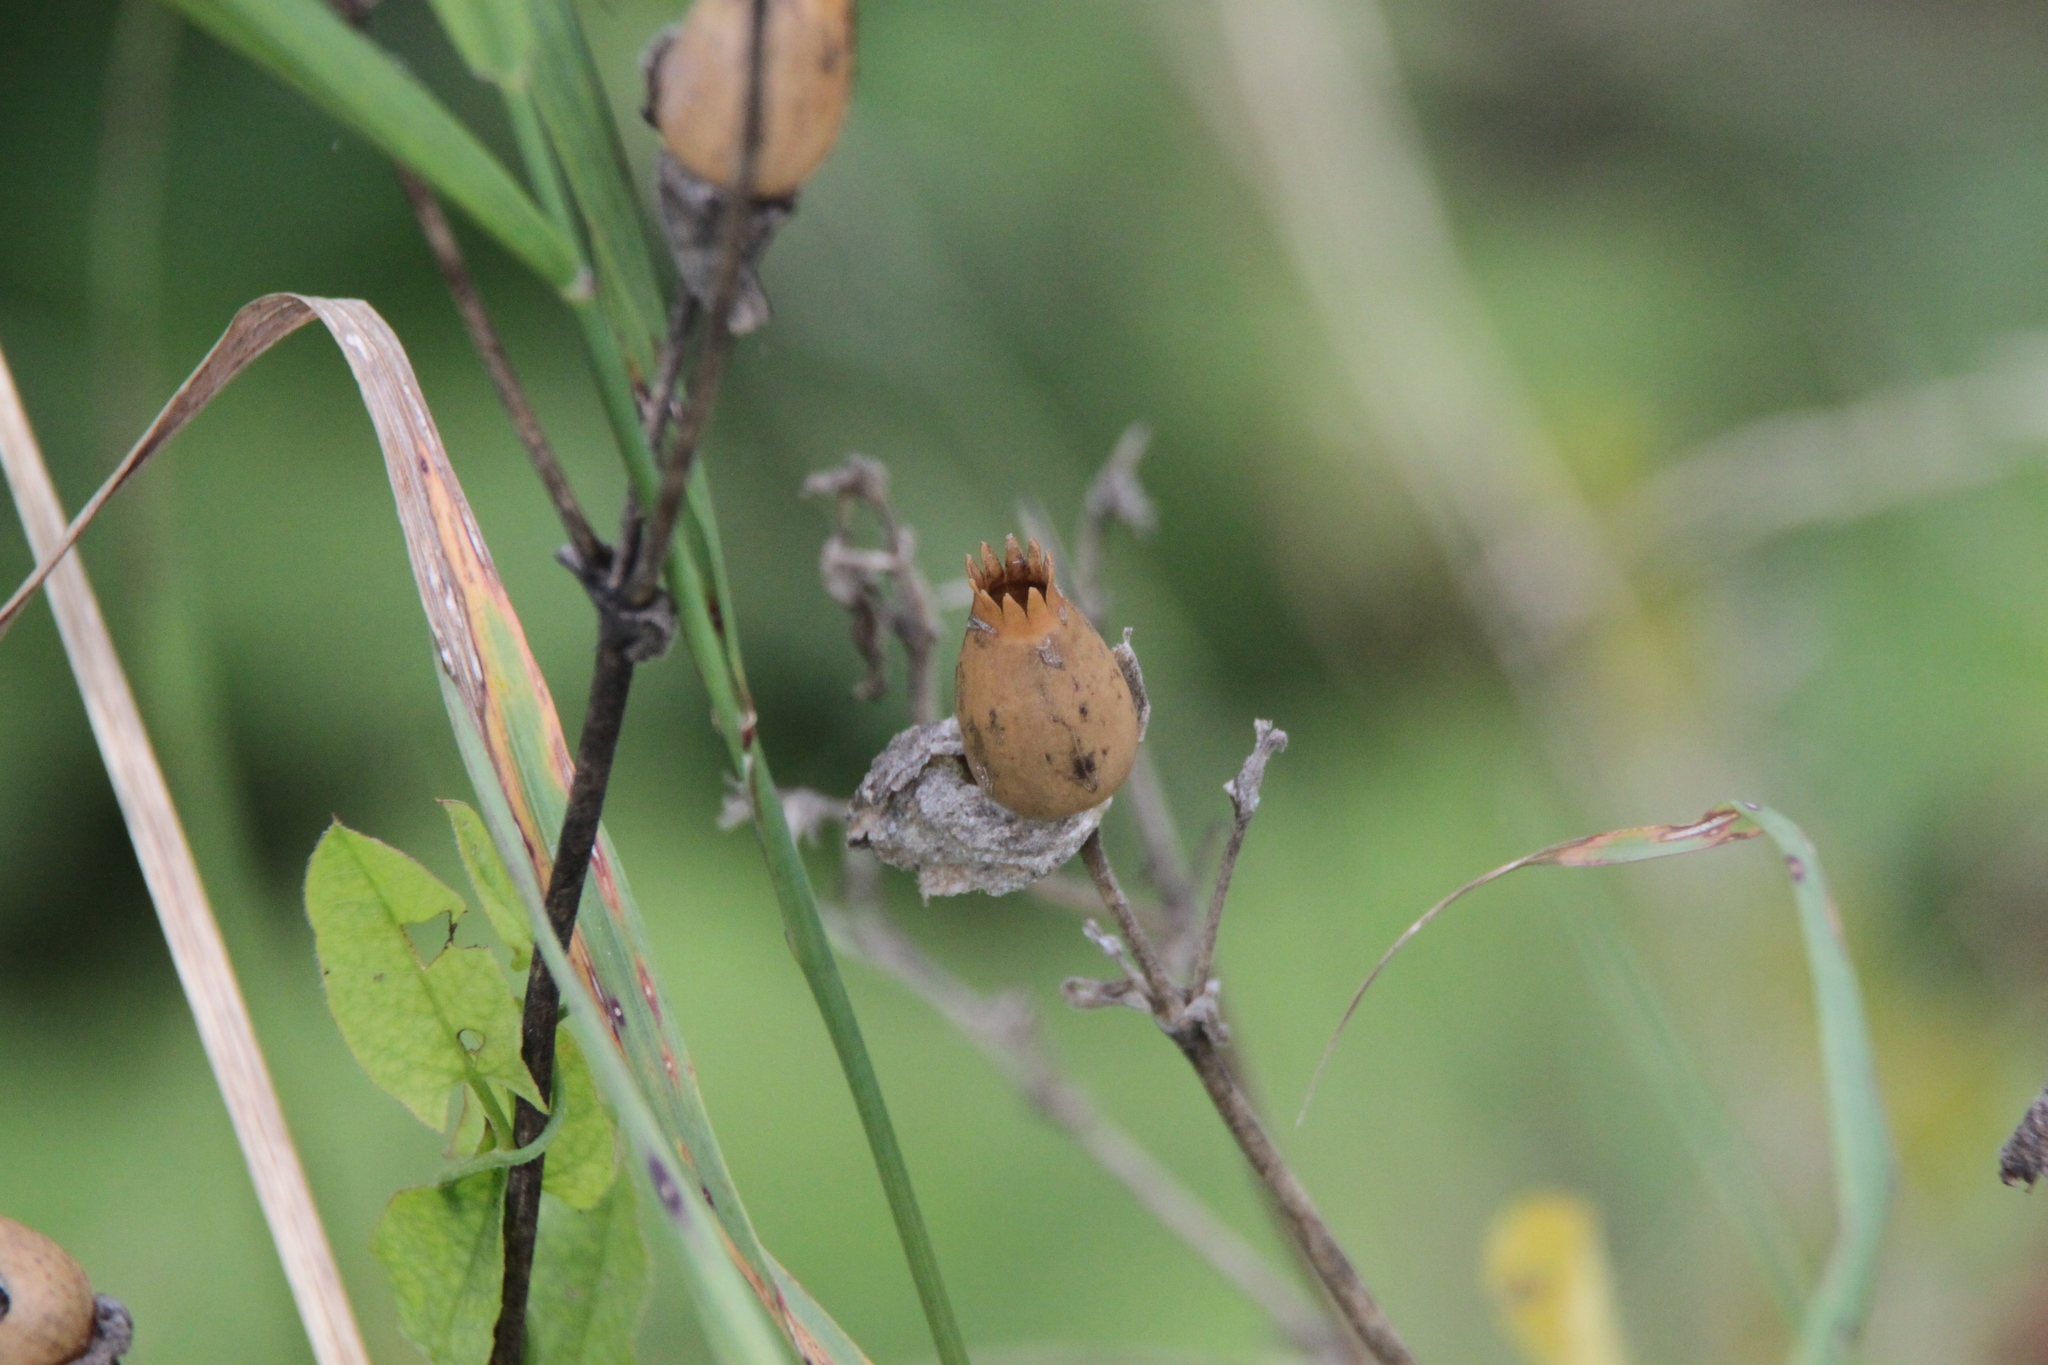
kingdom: Plantae
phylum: Tracheophyta
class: Magnoliopsida
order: Caryophyllales
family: Caryophyllaceae
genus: Silene
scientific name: Silene latifolia
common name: White campion
